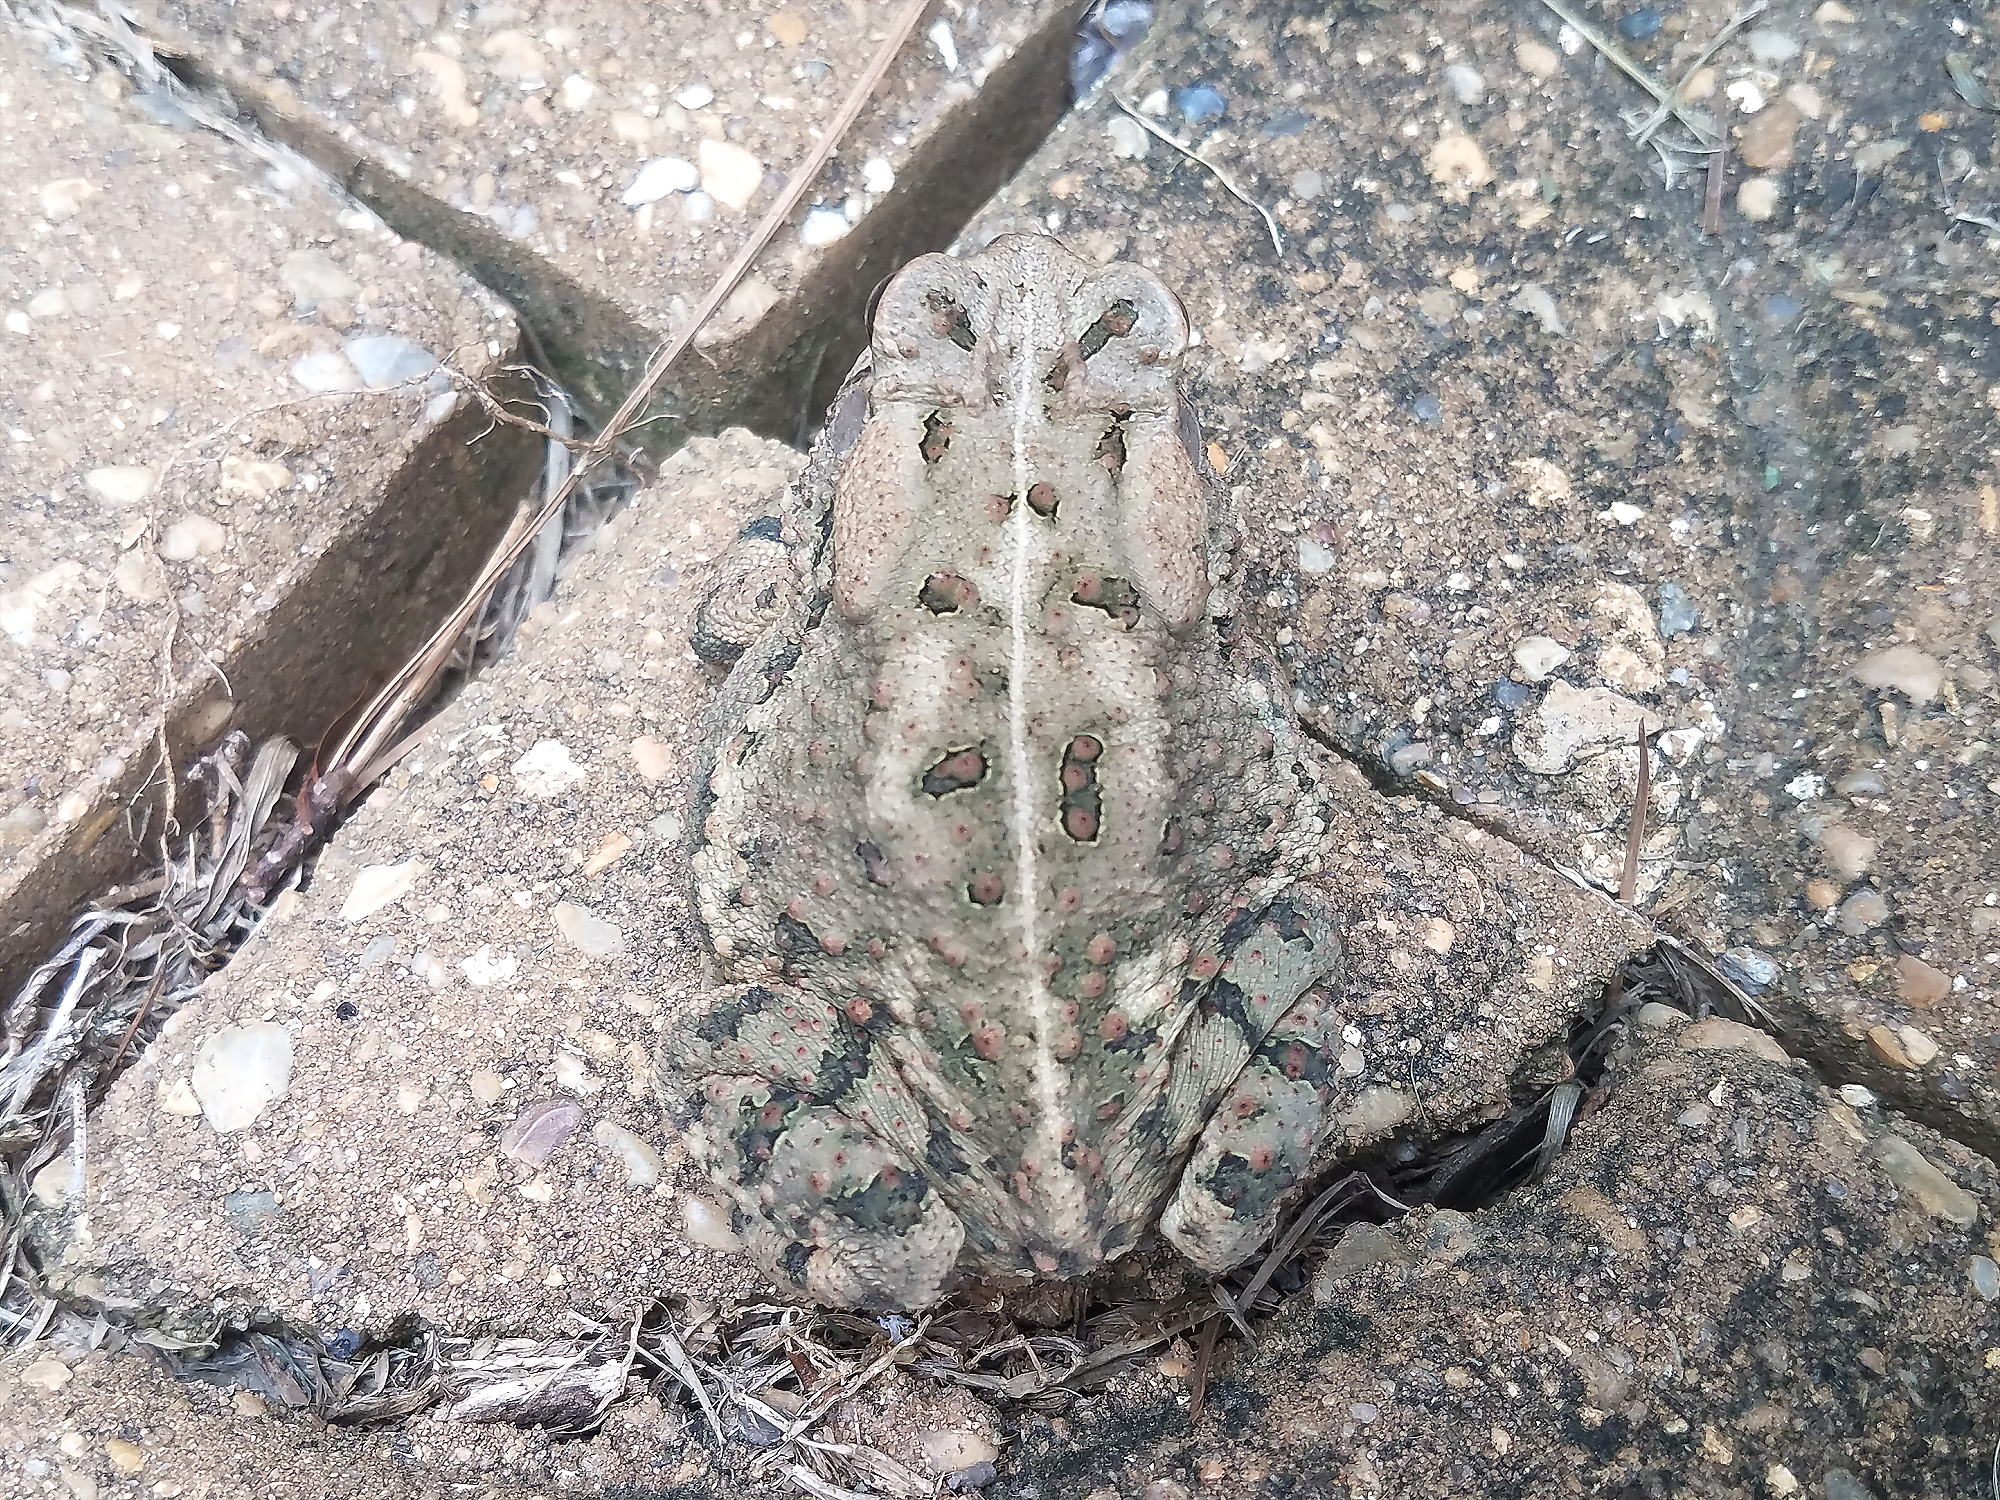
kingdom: Animalia
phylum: Chordata
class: Amphibia
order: Anura
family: Bufonidae
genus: Anaxyrus
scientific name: Anaxyrus fowleri
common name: Fowler's toad
